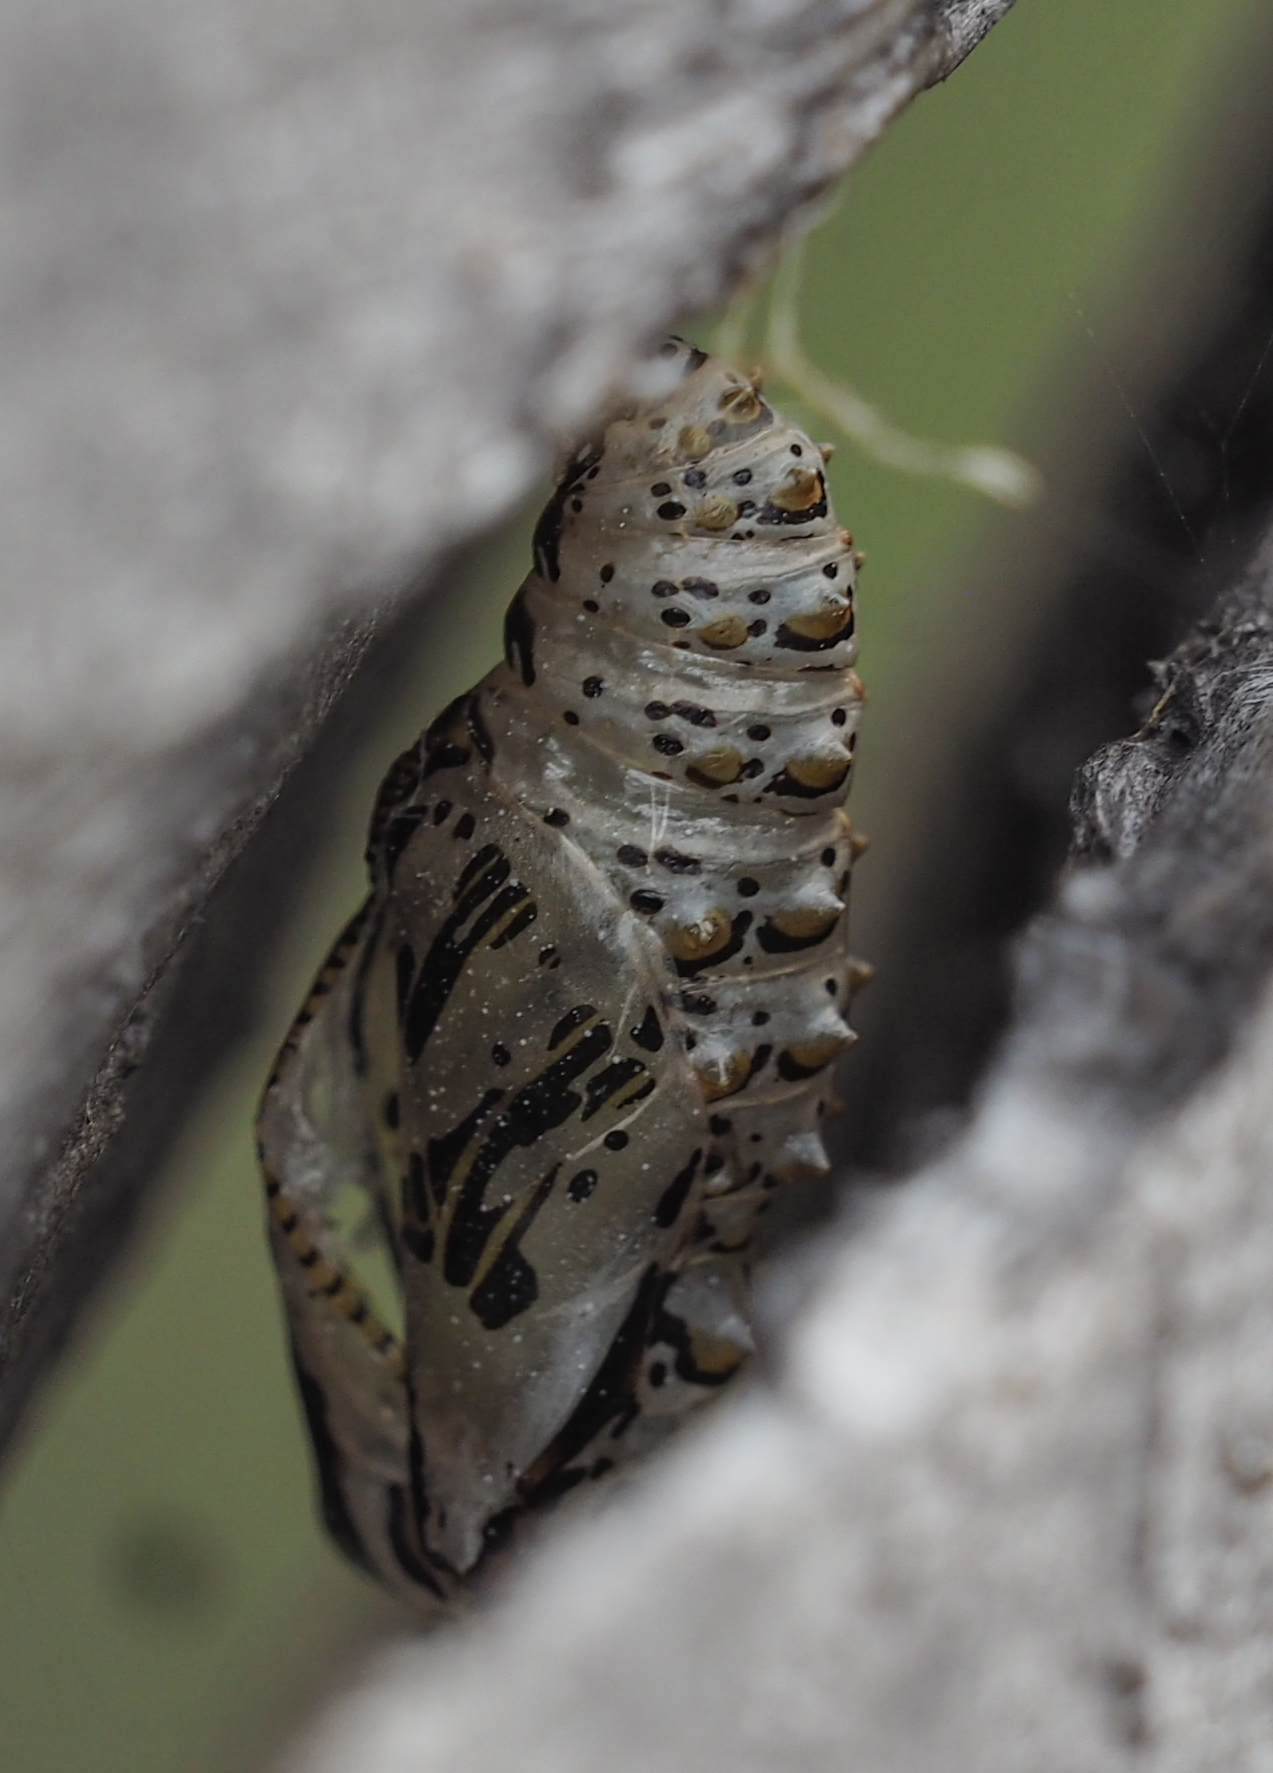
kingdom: Animalia
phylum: Arthropoda
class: Insecta
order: Lepidoptera
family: Nymphalidae
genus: Euptoieta
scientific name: Euptoieta claudia
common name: Variegated fritillary
